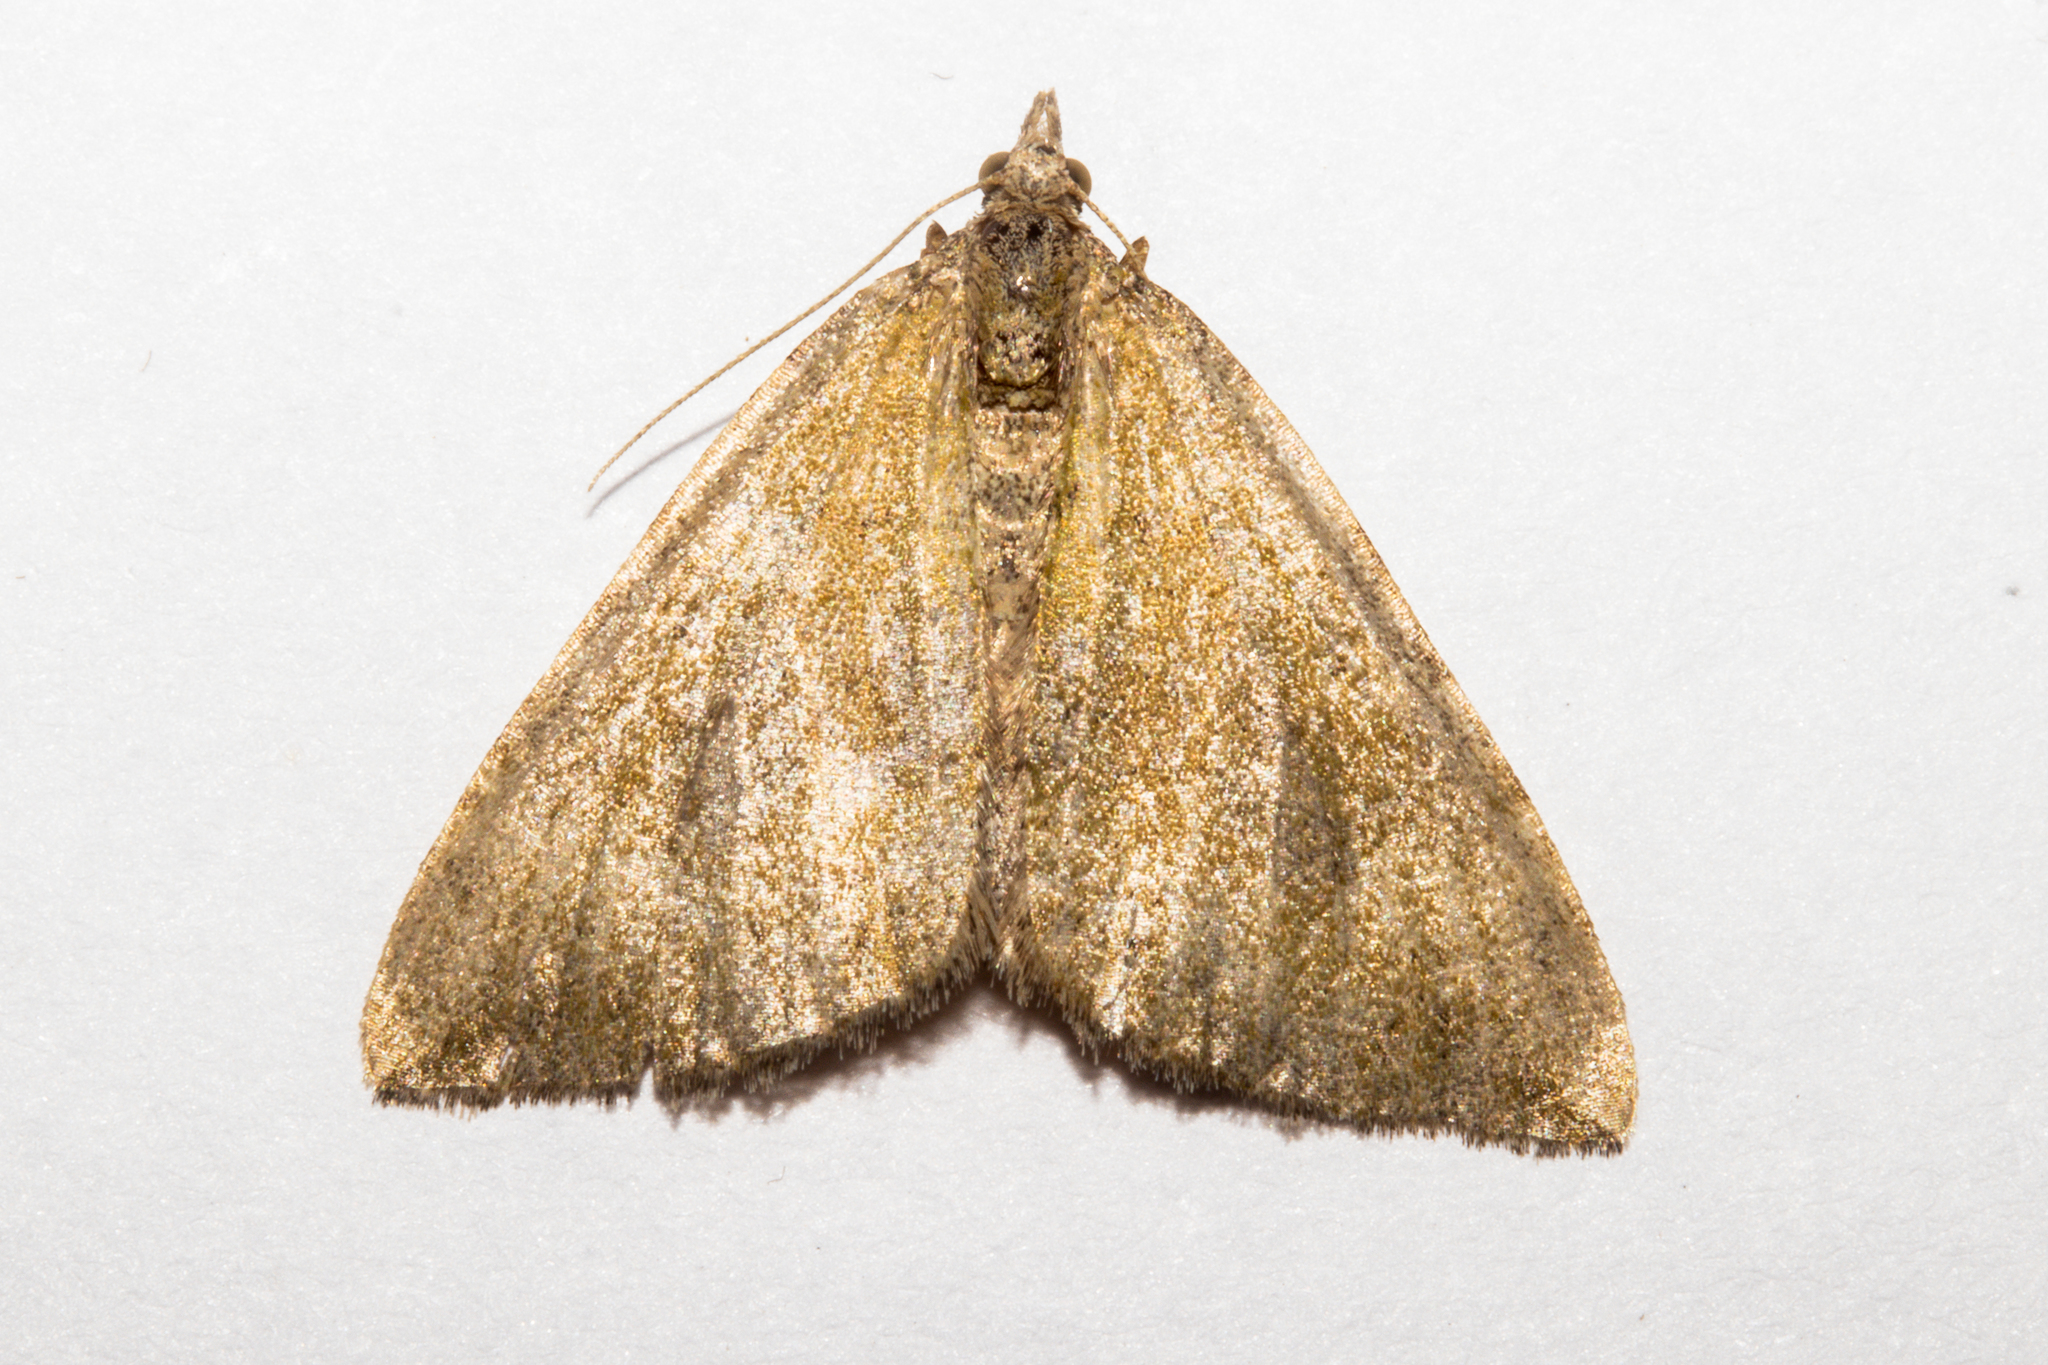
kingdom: Animalia
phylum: Arthropoda
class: Insecta
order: Lepidoptera
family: Geometridae
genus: Epyaxa
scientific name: Epyaxa rosearia
